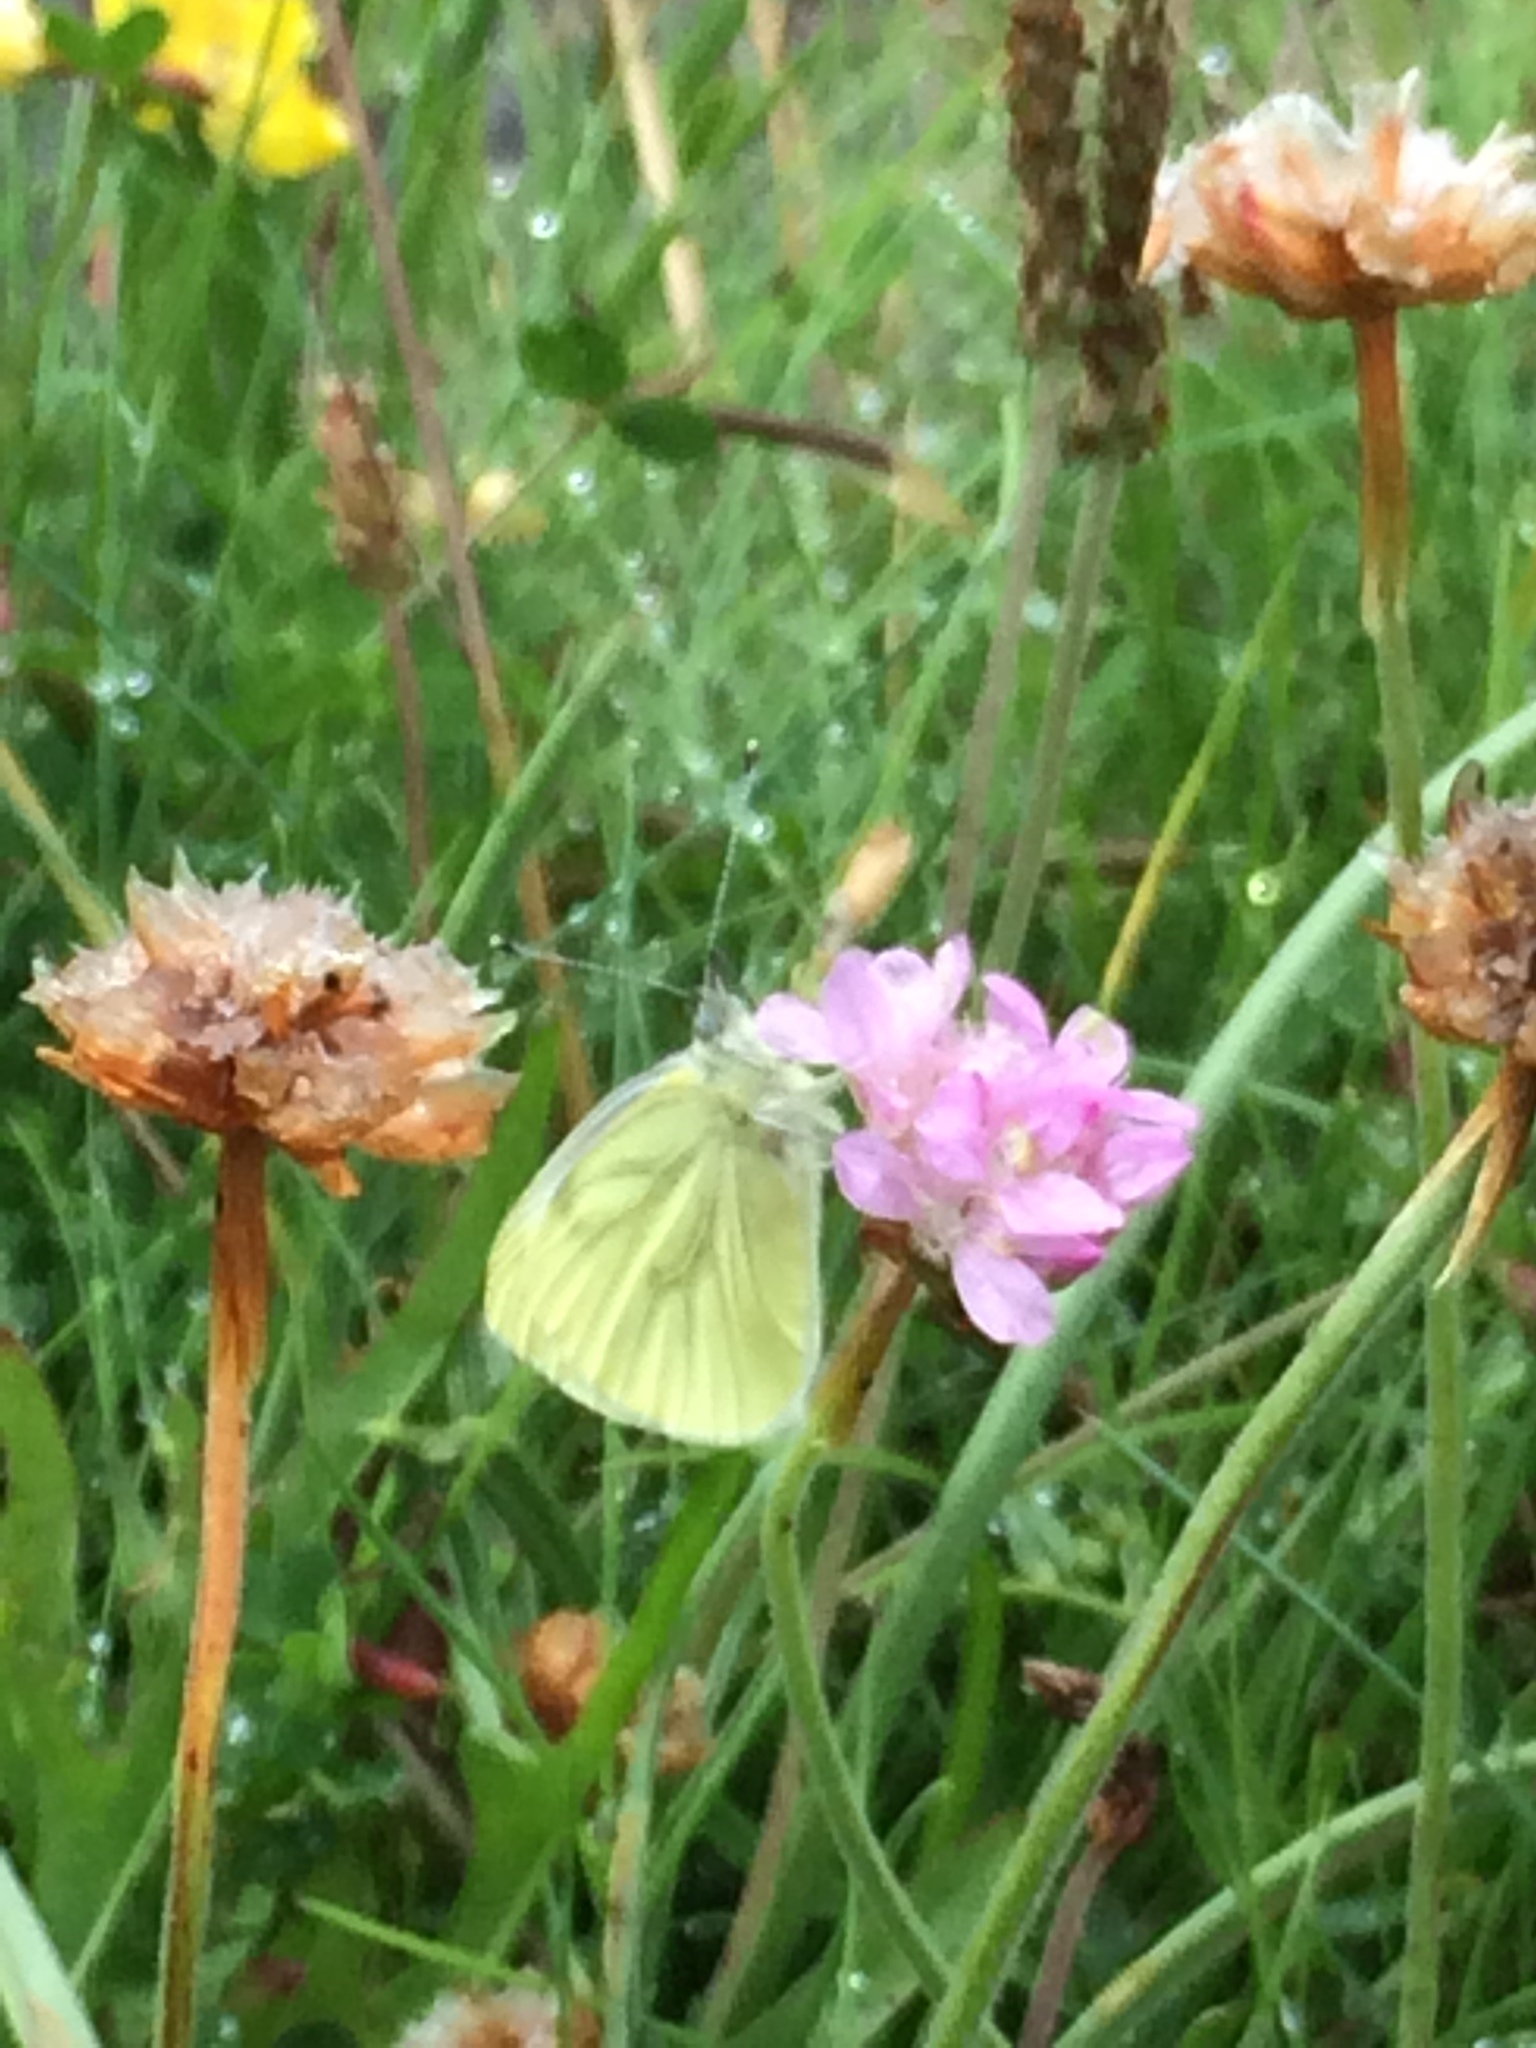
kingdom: Animalia
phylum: Arthropoda
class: Insecta
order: Lepidoptera
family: Pieridae
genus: Pieris
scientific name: Pieris napi
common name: Green-veined white
